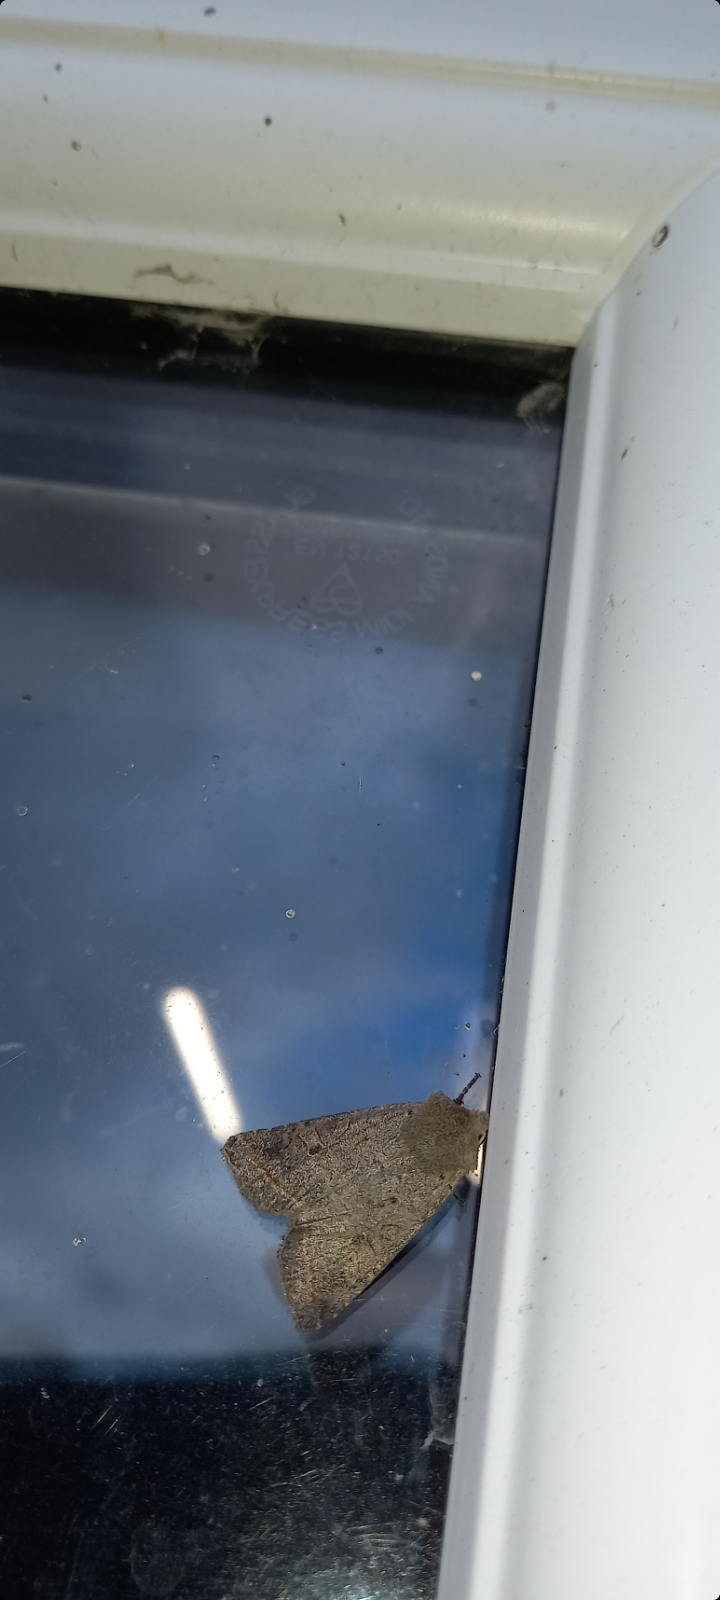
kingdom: Animalia
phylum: Arthropoda
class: Insecta
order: Lepidoptera
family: Noctuidae
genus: Agrochola
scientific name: Agrochola lota
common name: Red-line quaker
